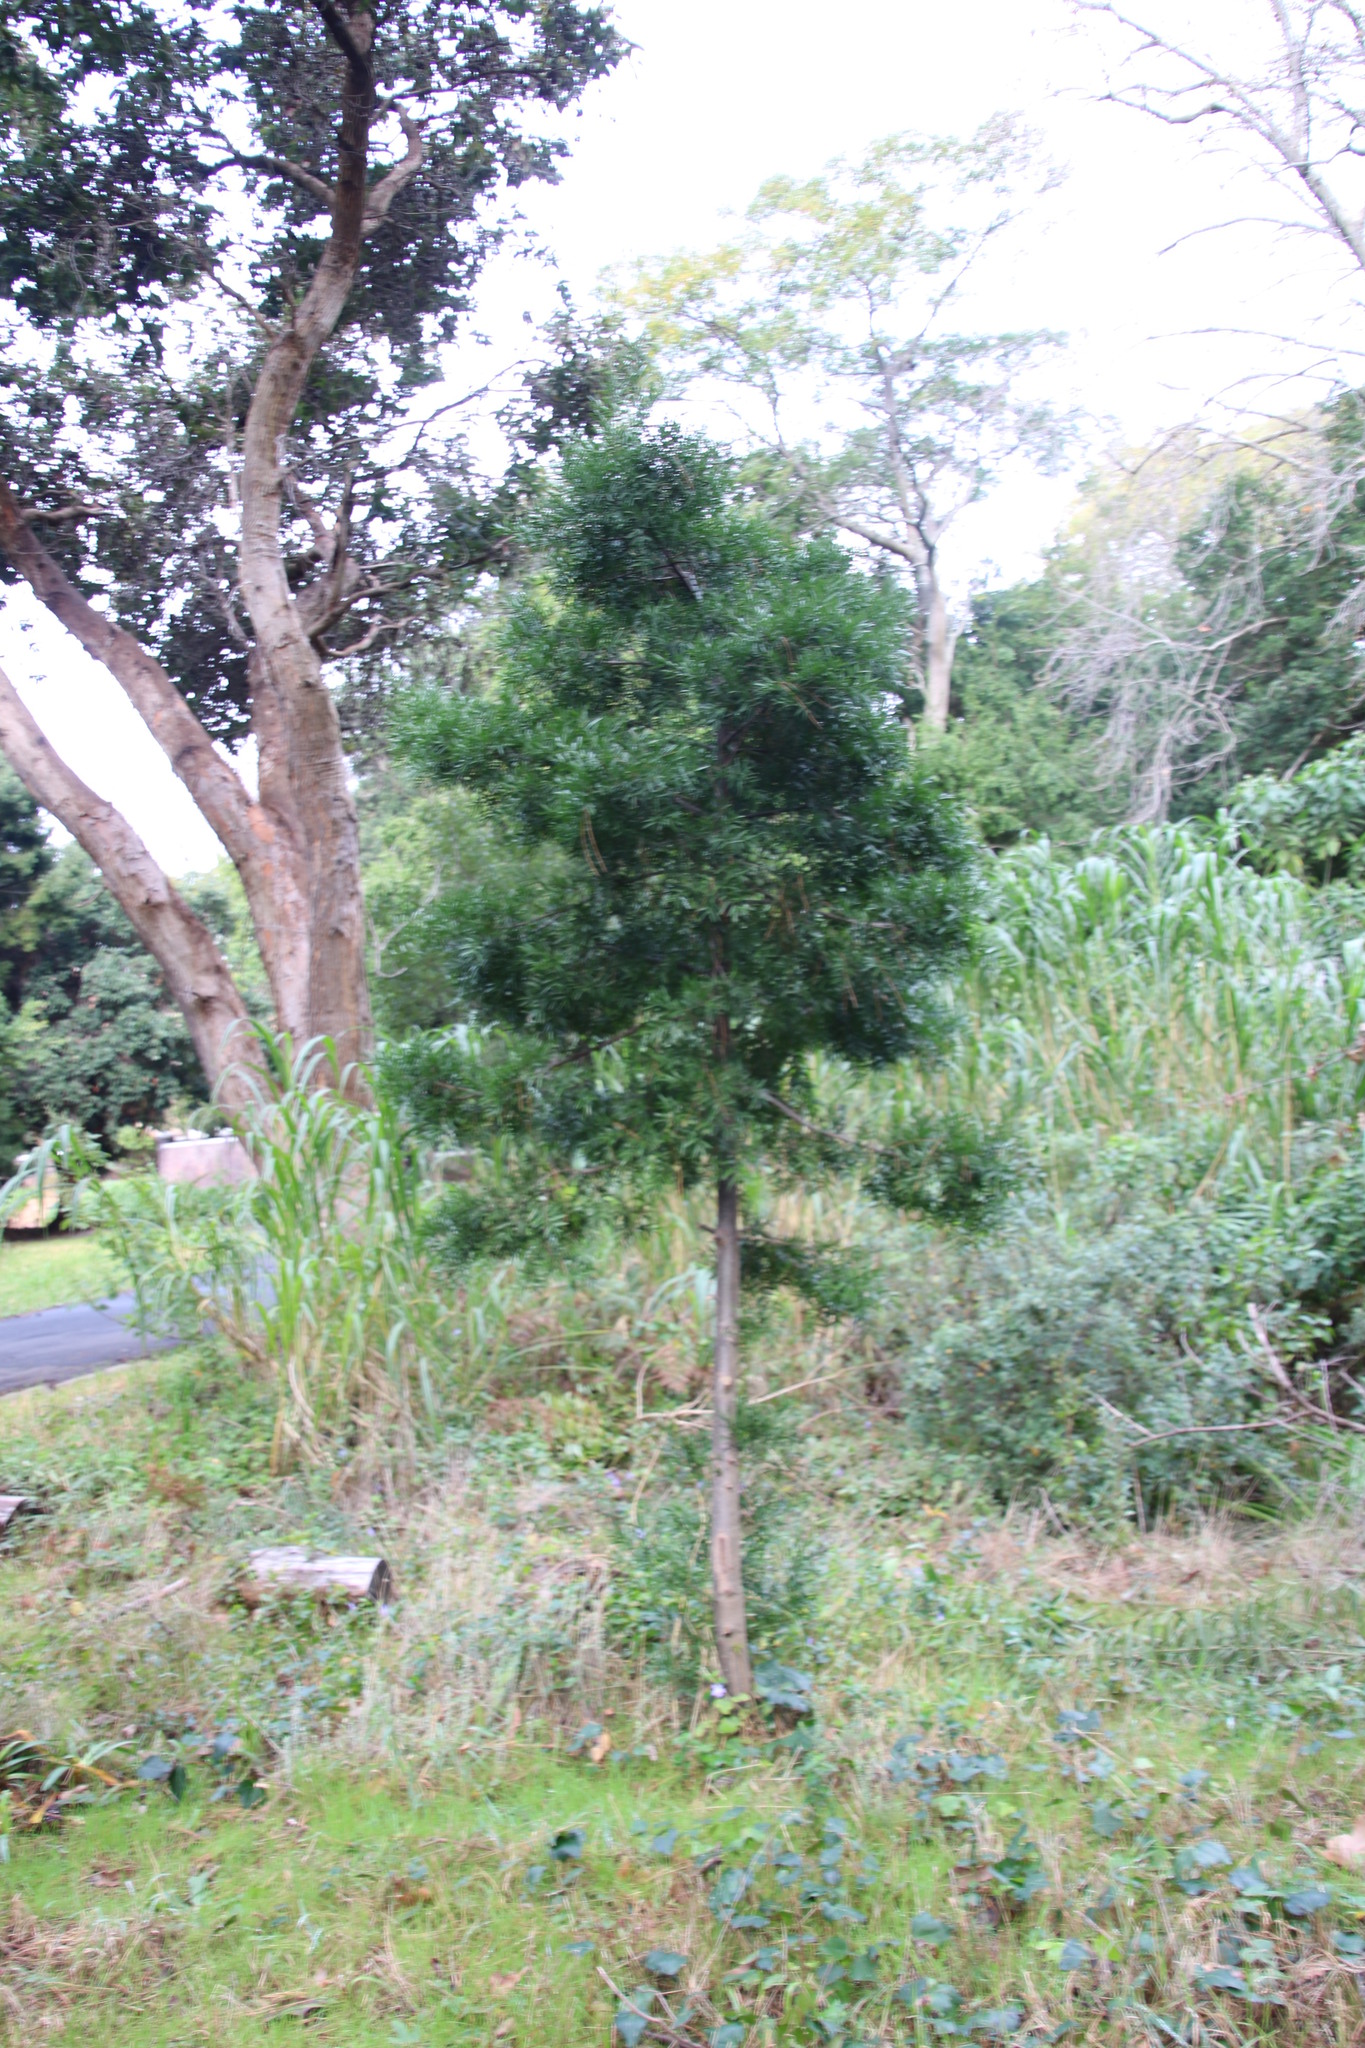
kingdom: Plantae
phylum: Tracheophyta
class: Magnoliopsida
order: Fabales
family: Fabaceae
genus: Acacia
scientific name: Acacia melanoxylon
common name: Blackwood
